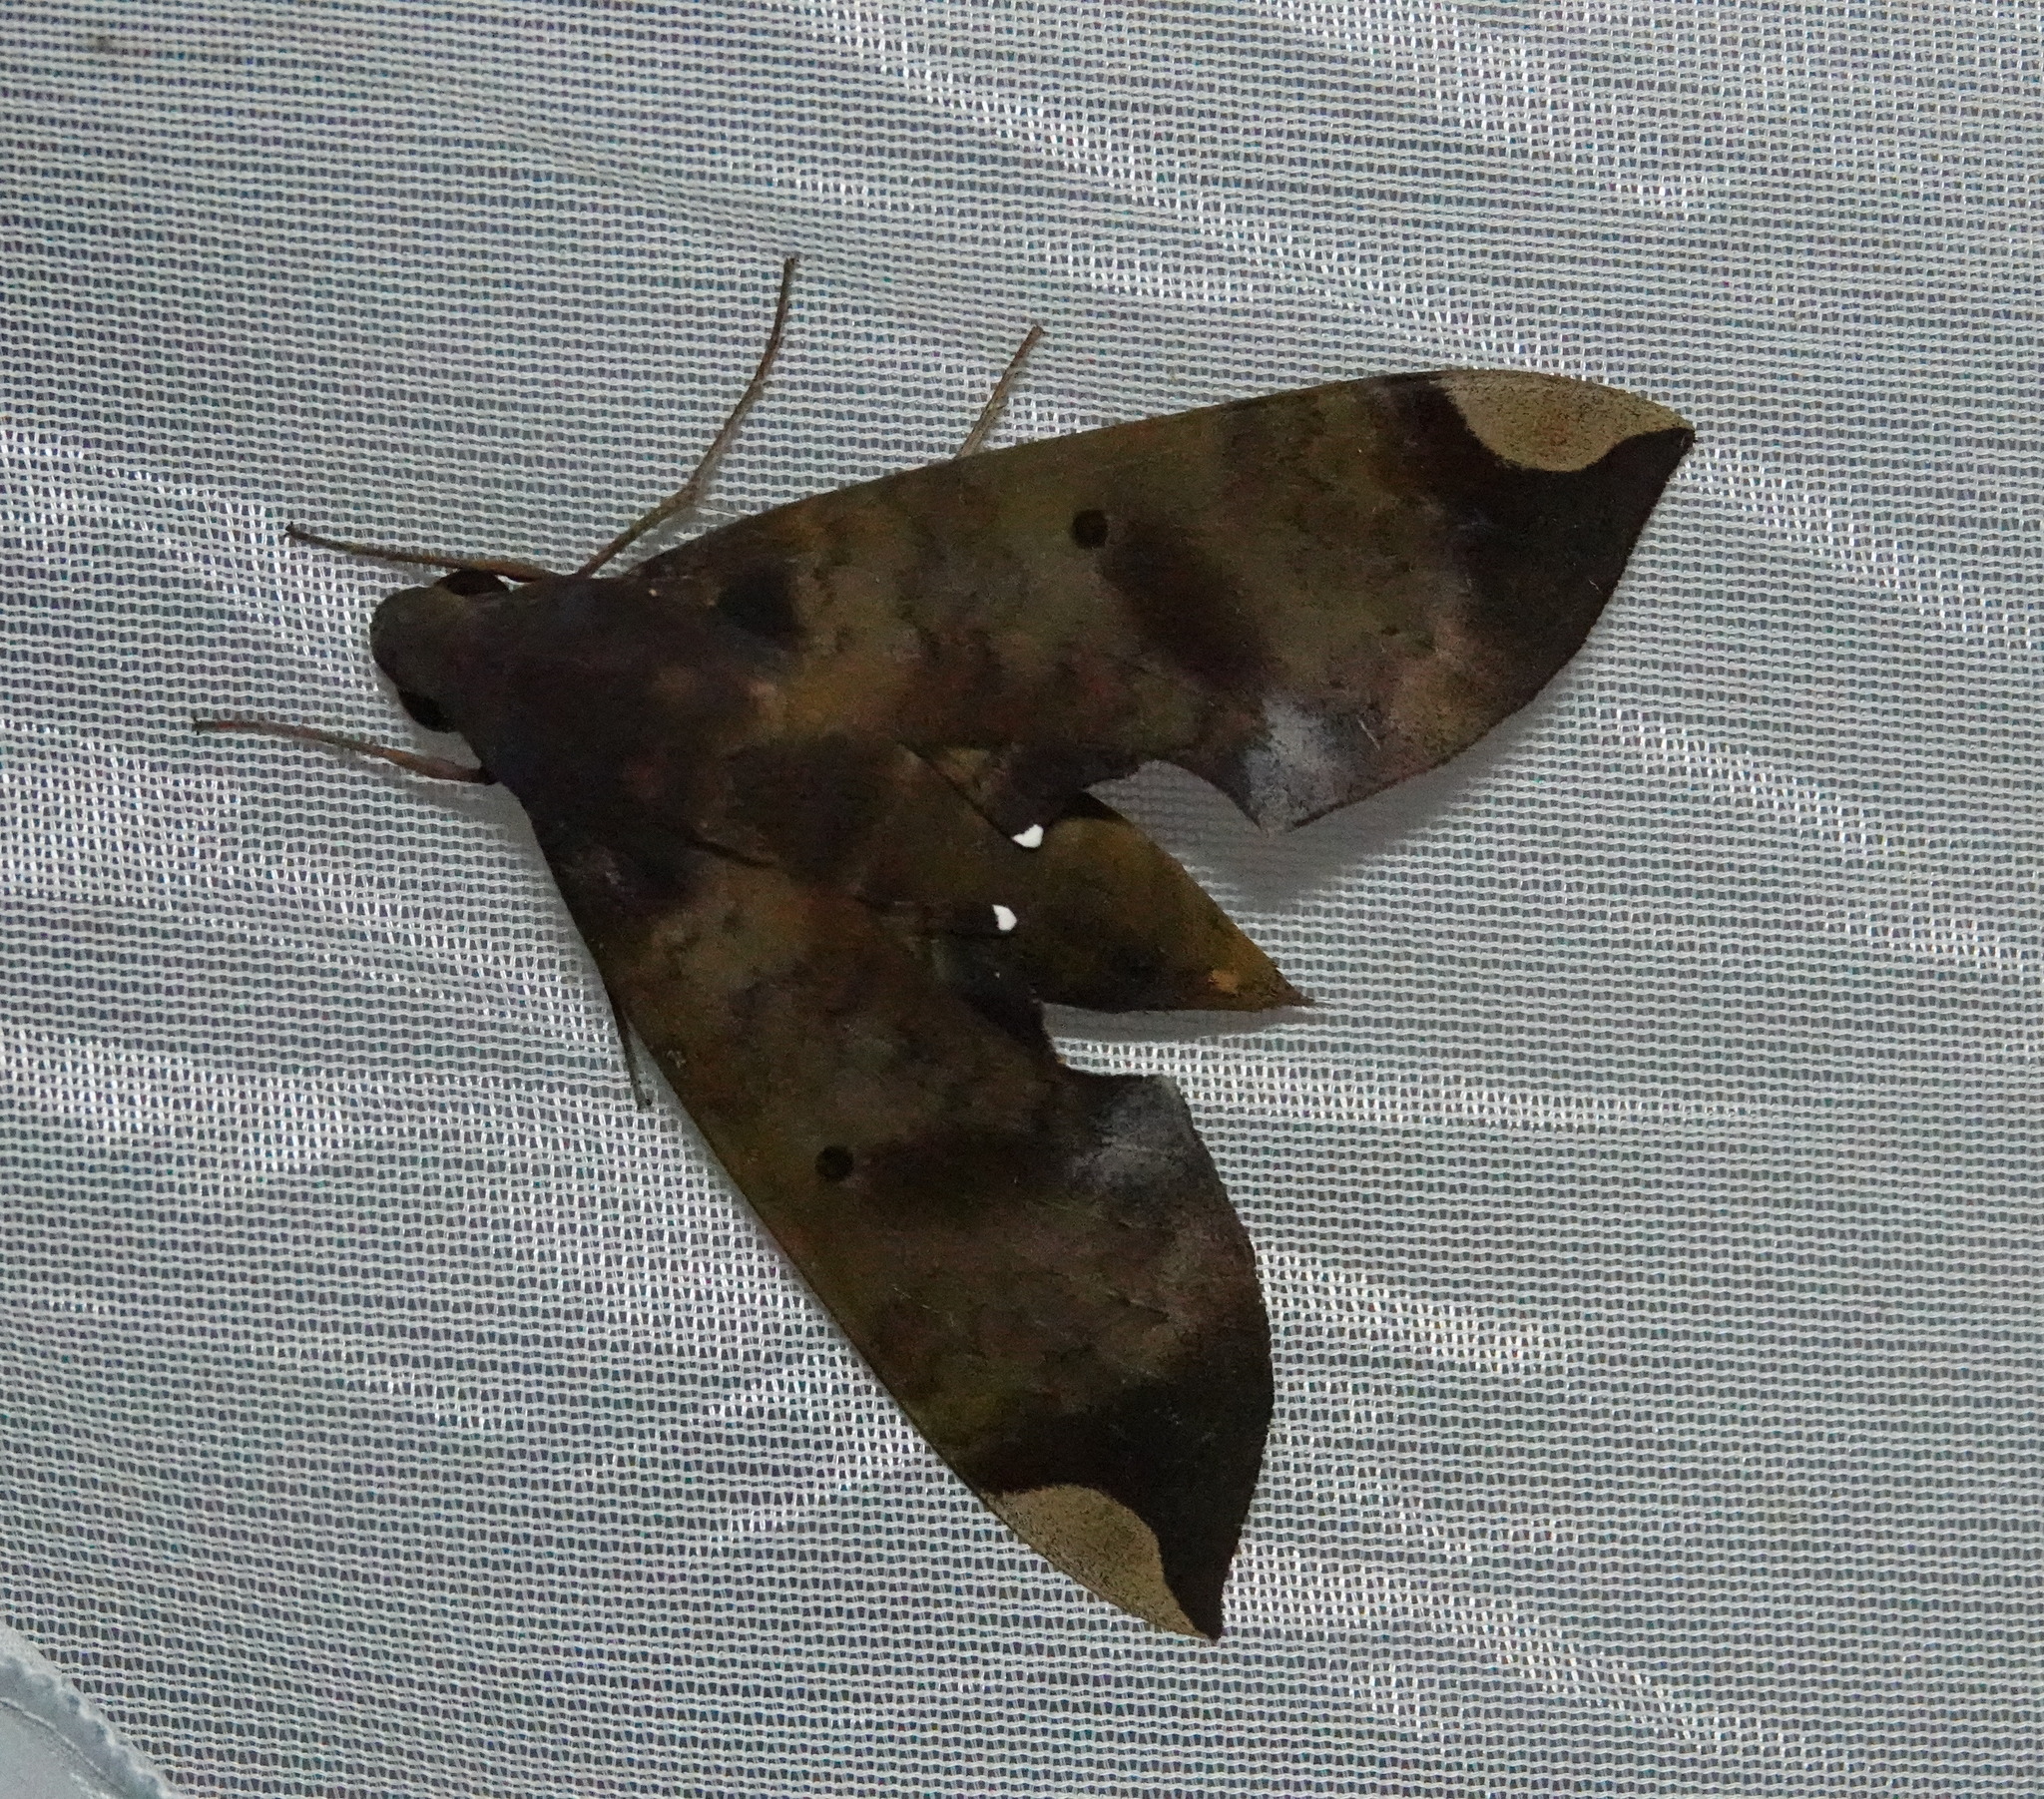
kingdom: Animalia
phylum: Arthropoda
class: Insecta
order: Lepidoptera
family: Sphingidae
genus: Pachylia
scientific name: Pachylia ficus
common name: Fig sphinx
